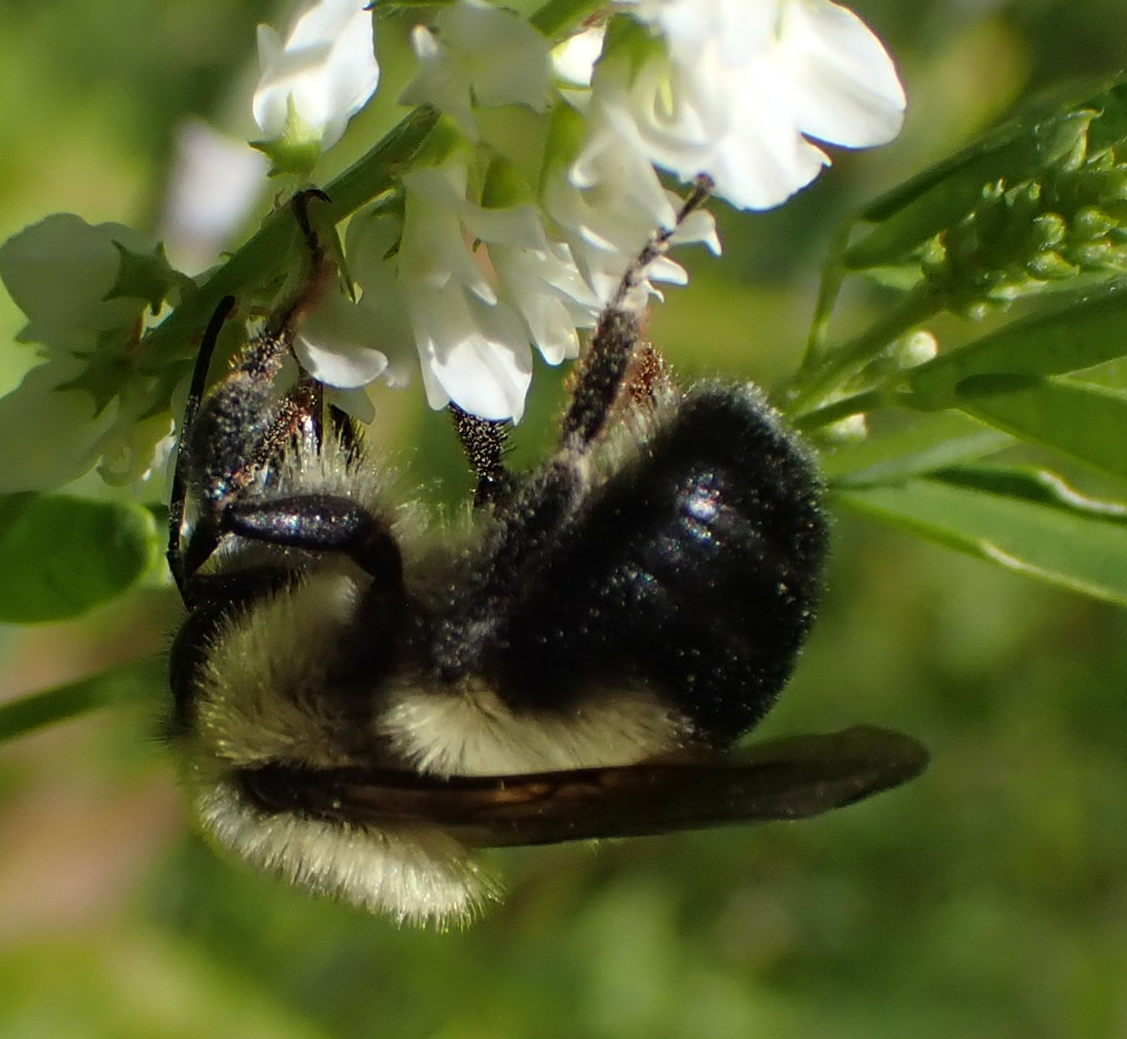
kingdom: Animalia
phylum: Arthropoda
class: Insecta
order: Hymenoptera
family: Apidae
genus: Bombus
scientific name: Bombus bimaculatus
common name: Two-spotted bumble bee
